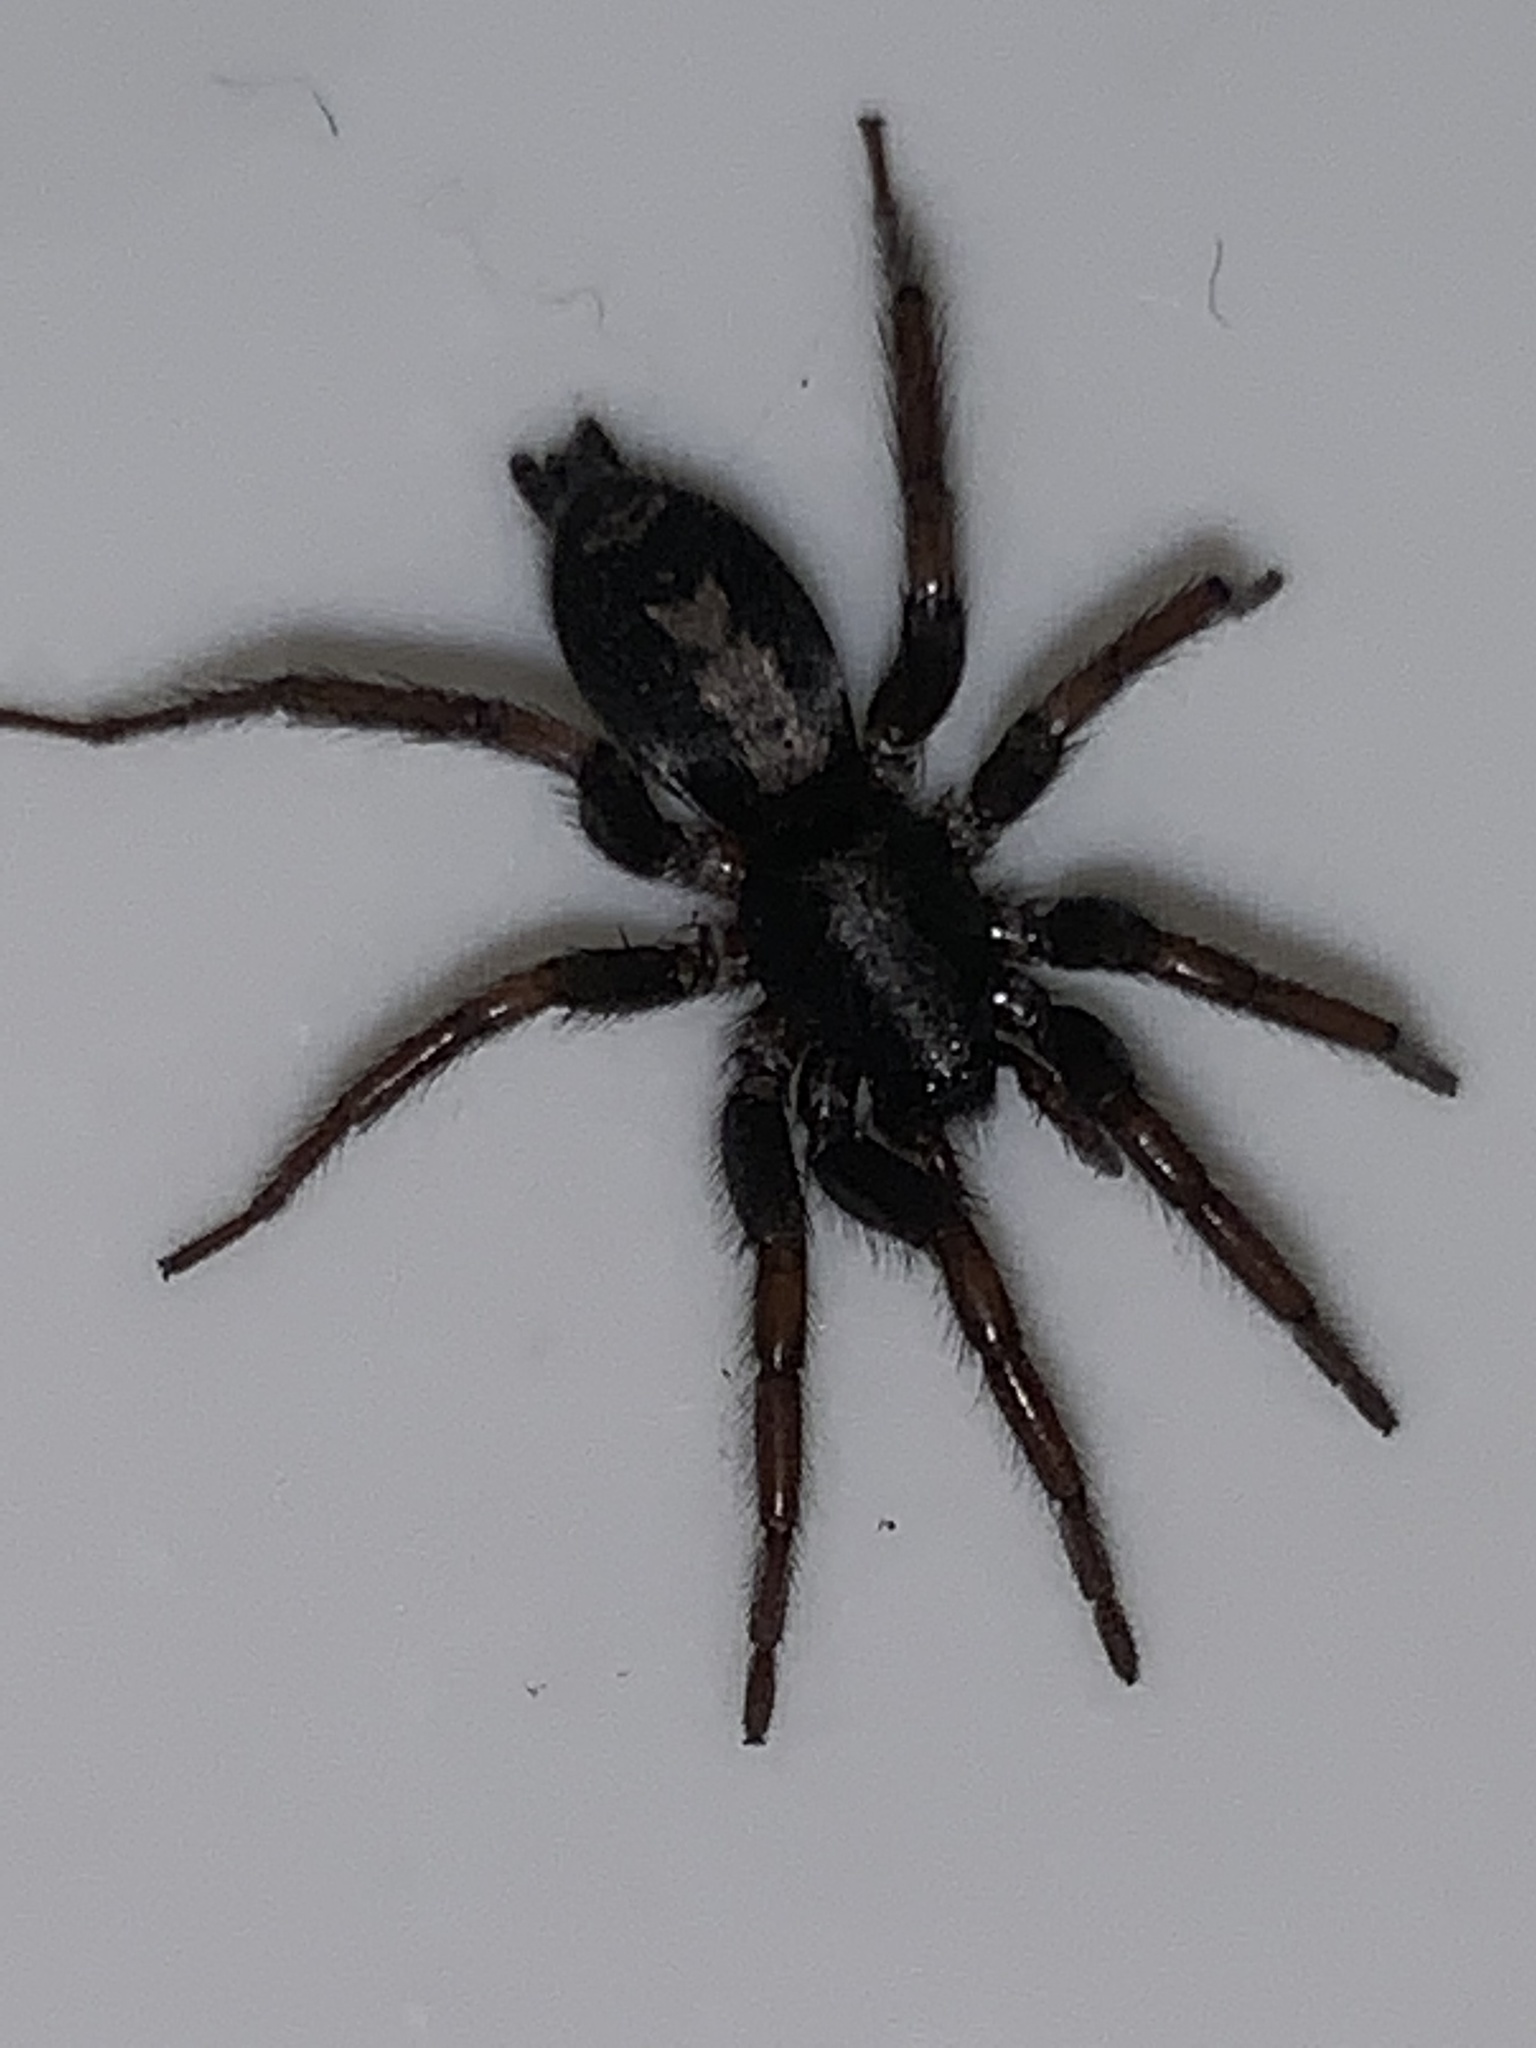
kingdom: Animalia
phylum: Arthropoda
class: Arachnida
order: Araneae
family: Gnaphosidae
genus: Herpyllus
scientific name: Herpyllus ecclesiasticus
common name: Eastern parson spider
